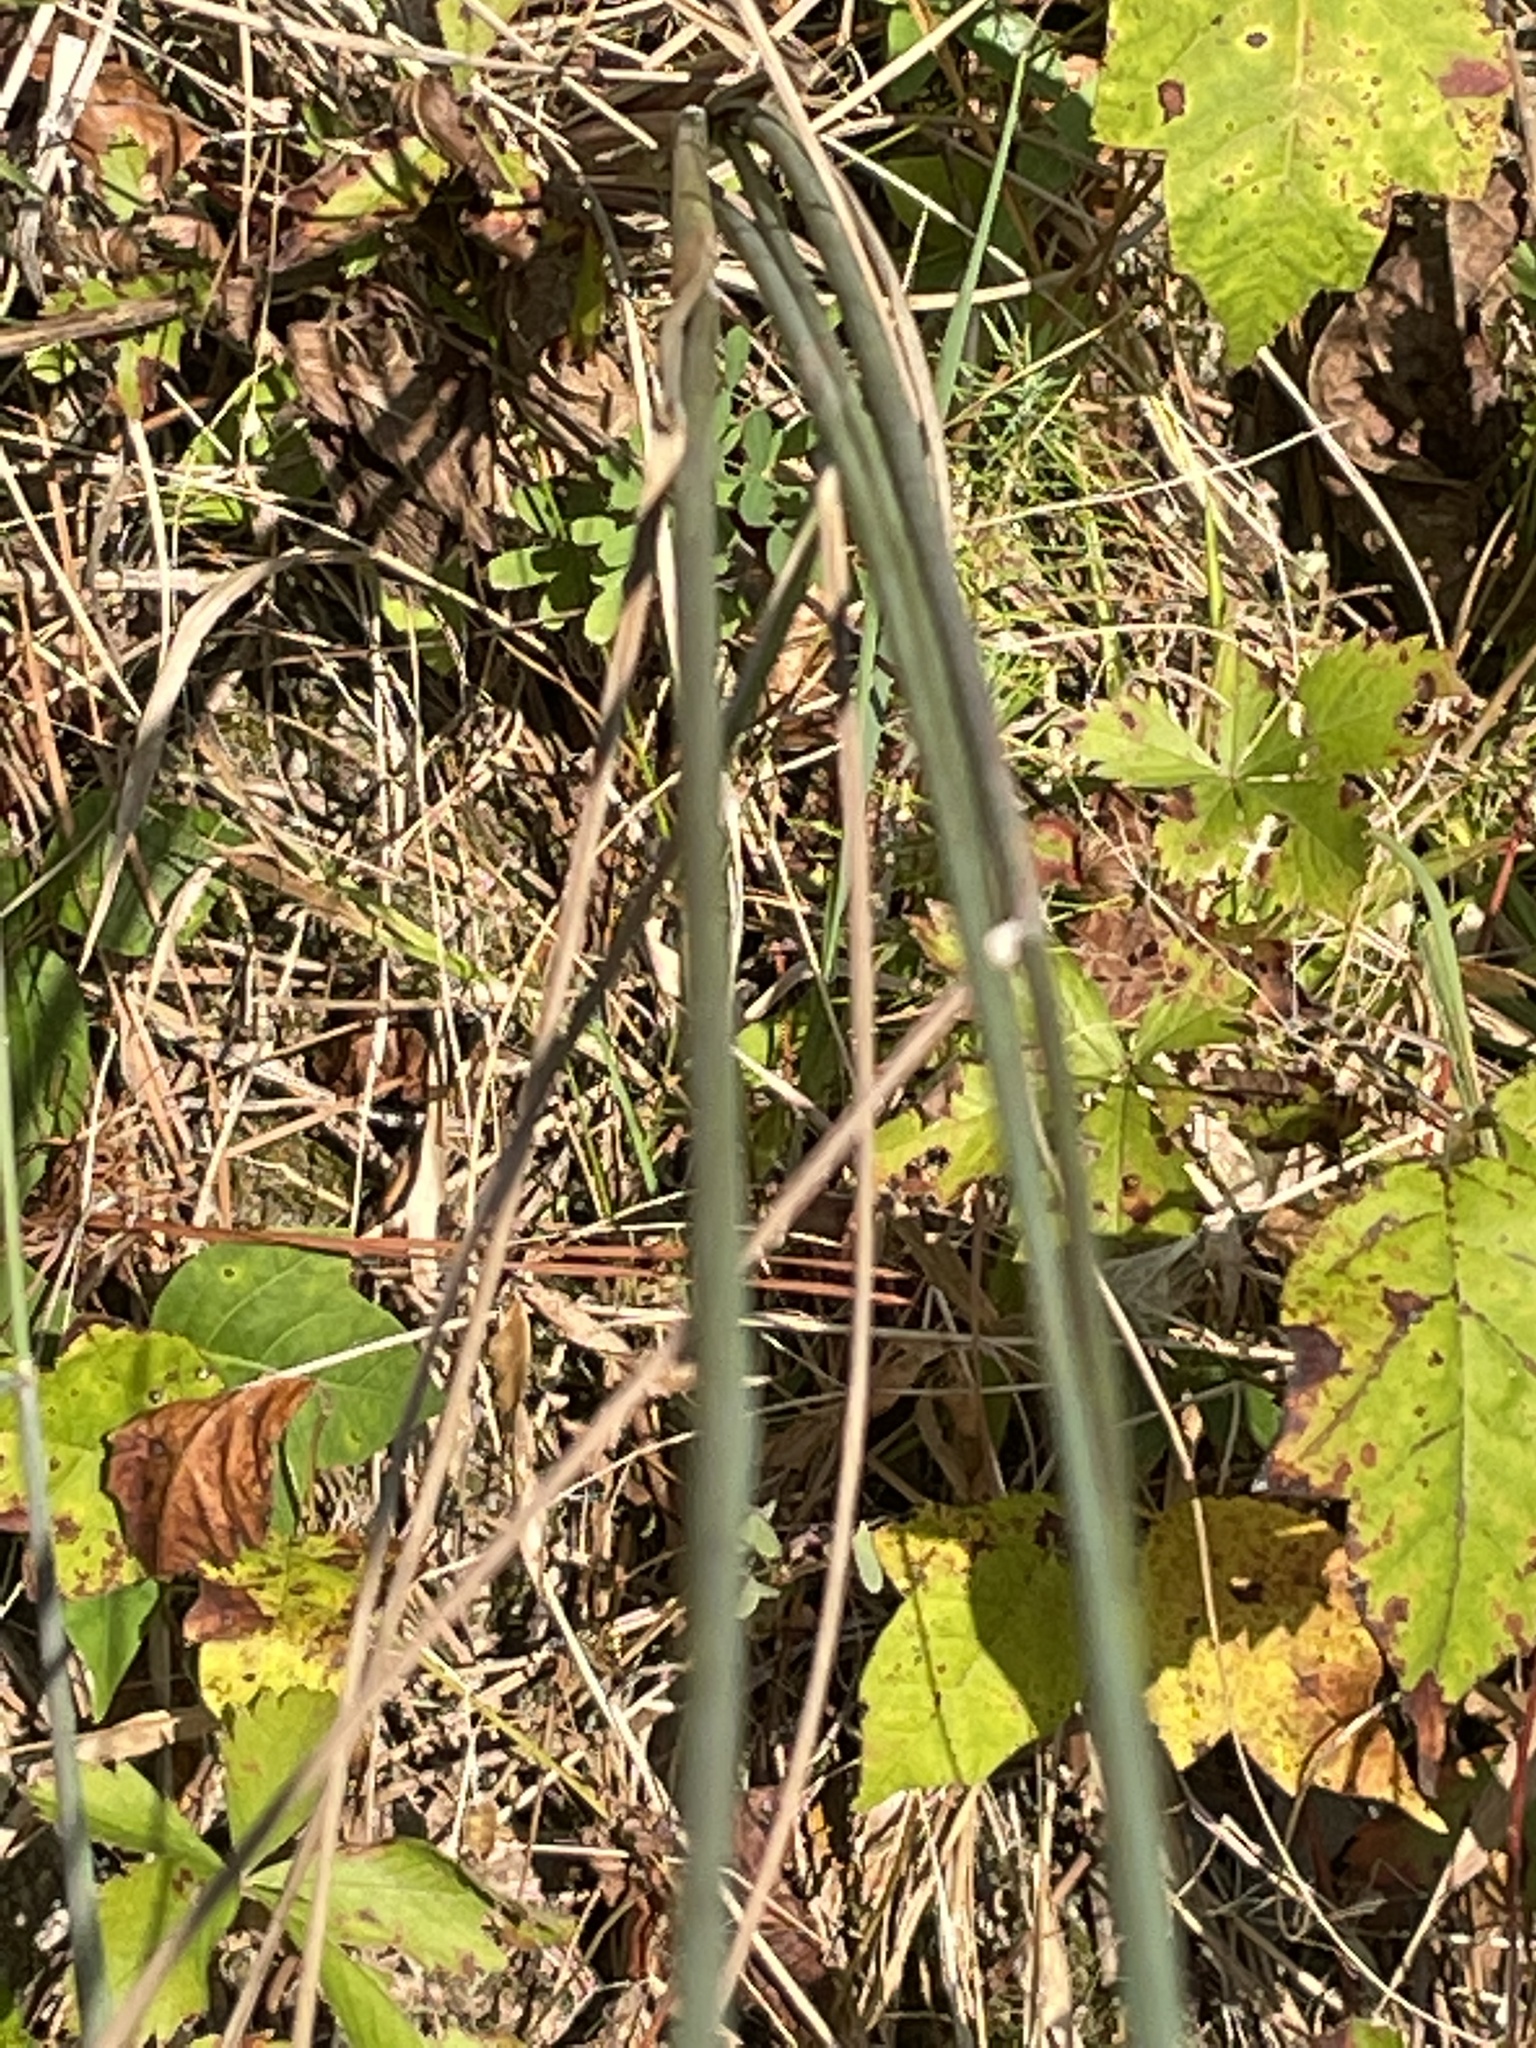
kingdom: Plantae
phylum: Tracheophyta
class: Liliopsida
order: Poales
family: Poaceae
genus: Sorghastrum
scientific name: Sorghastrum elliottii
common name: Slender indian grass
